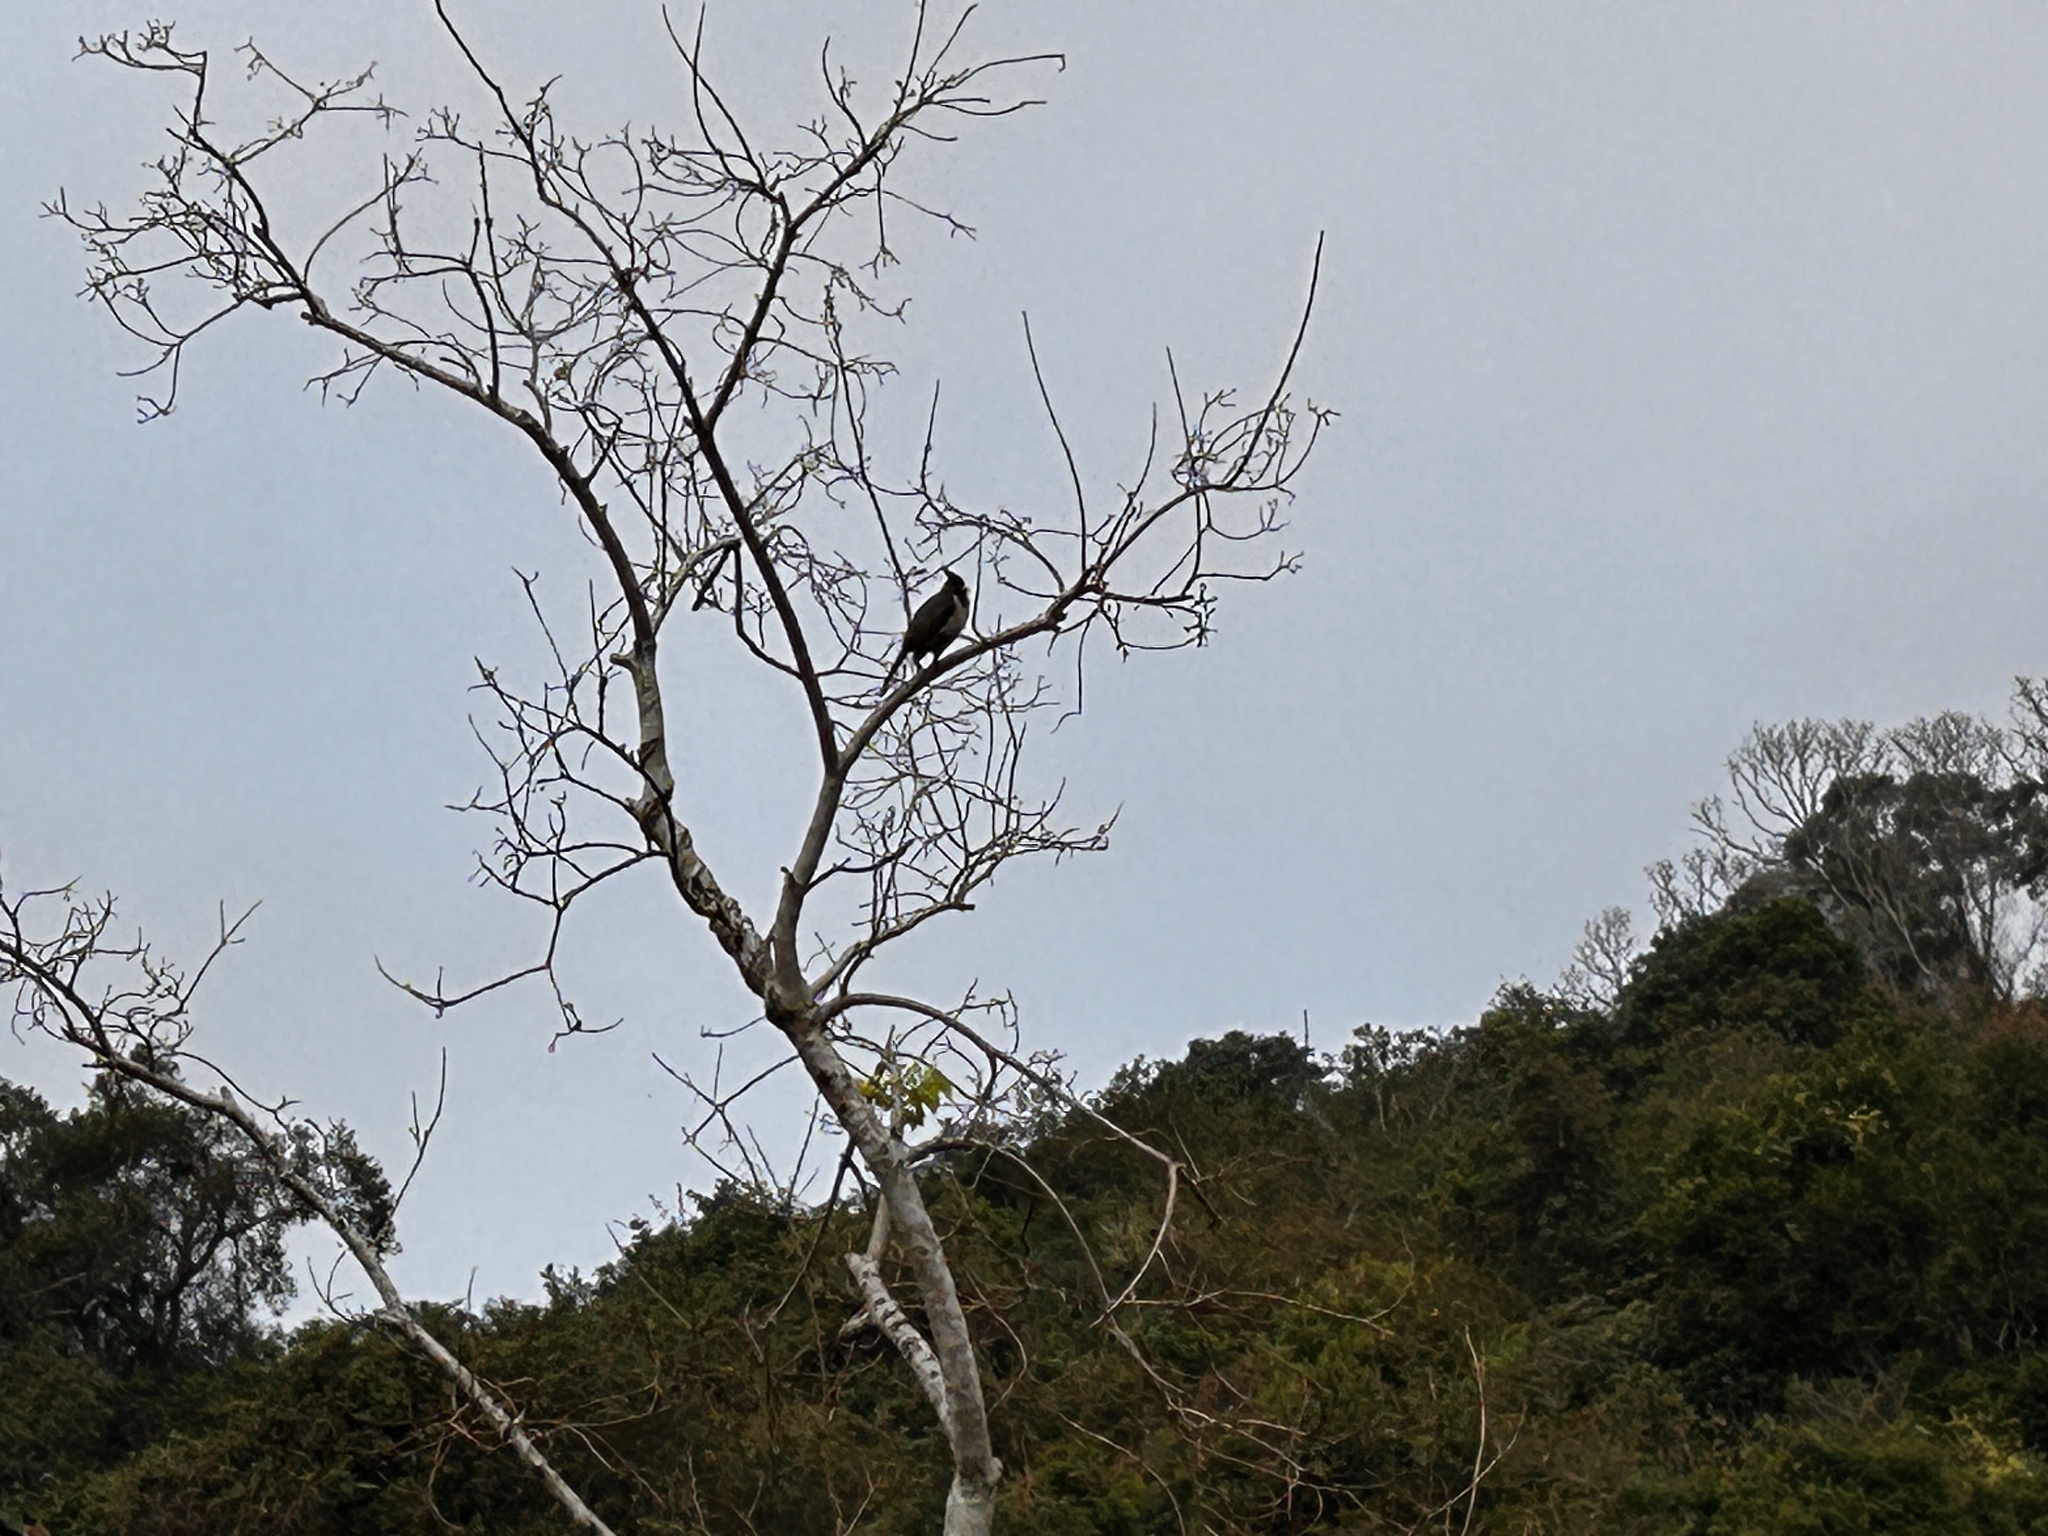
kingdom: Animalia
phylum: Chordata
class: Aves
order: Passeriformes
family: Pycnonotidae
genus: Pycnonotus
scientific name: Pycnonotus jocosus
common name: Red-whiskered bulbul
